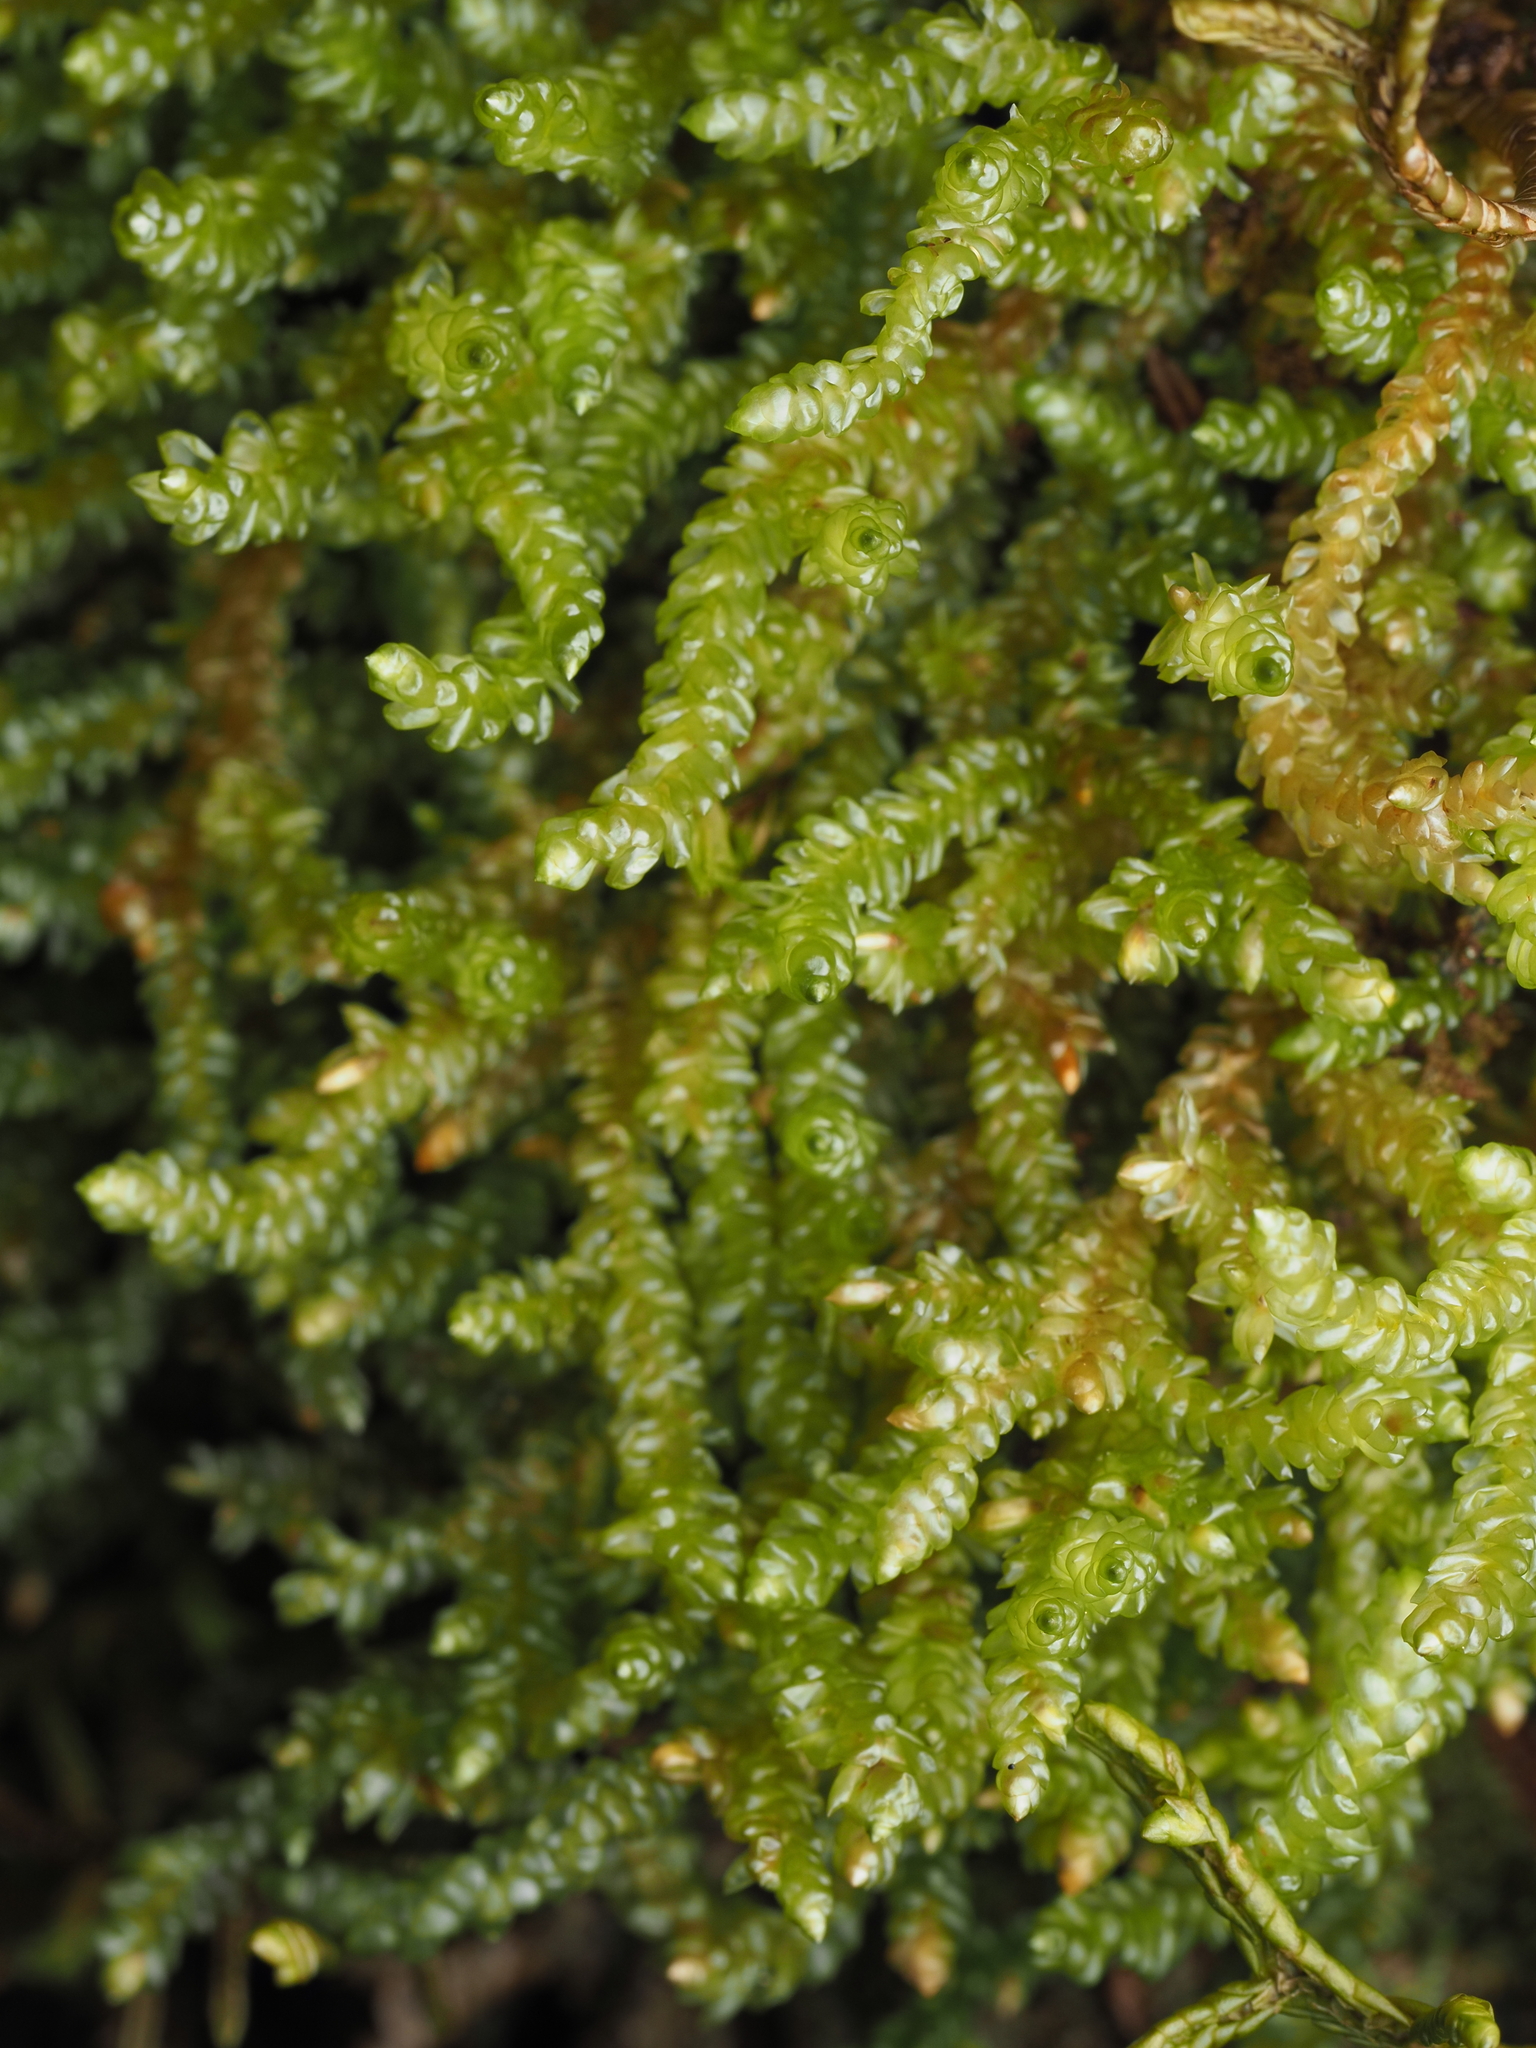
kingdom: Plantae
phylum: Bryophyta
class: Bryopsida
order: Hypnales
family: Lembophyllaceae
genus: Weymouthia
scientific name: Weymouthia cochlearifolia
